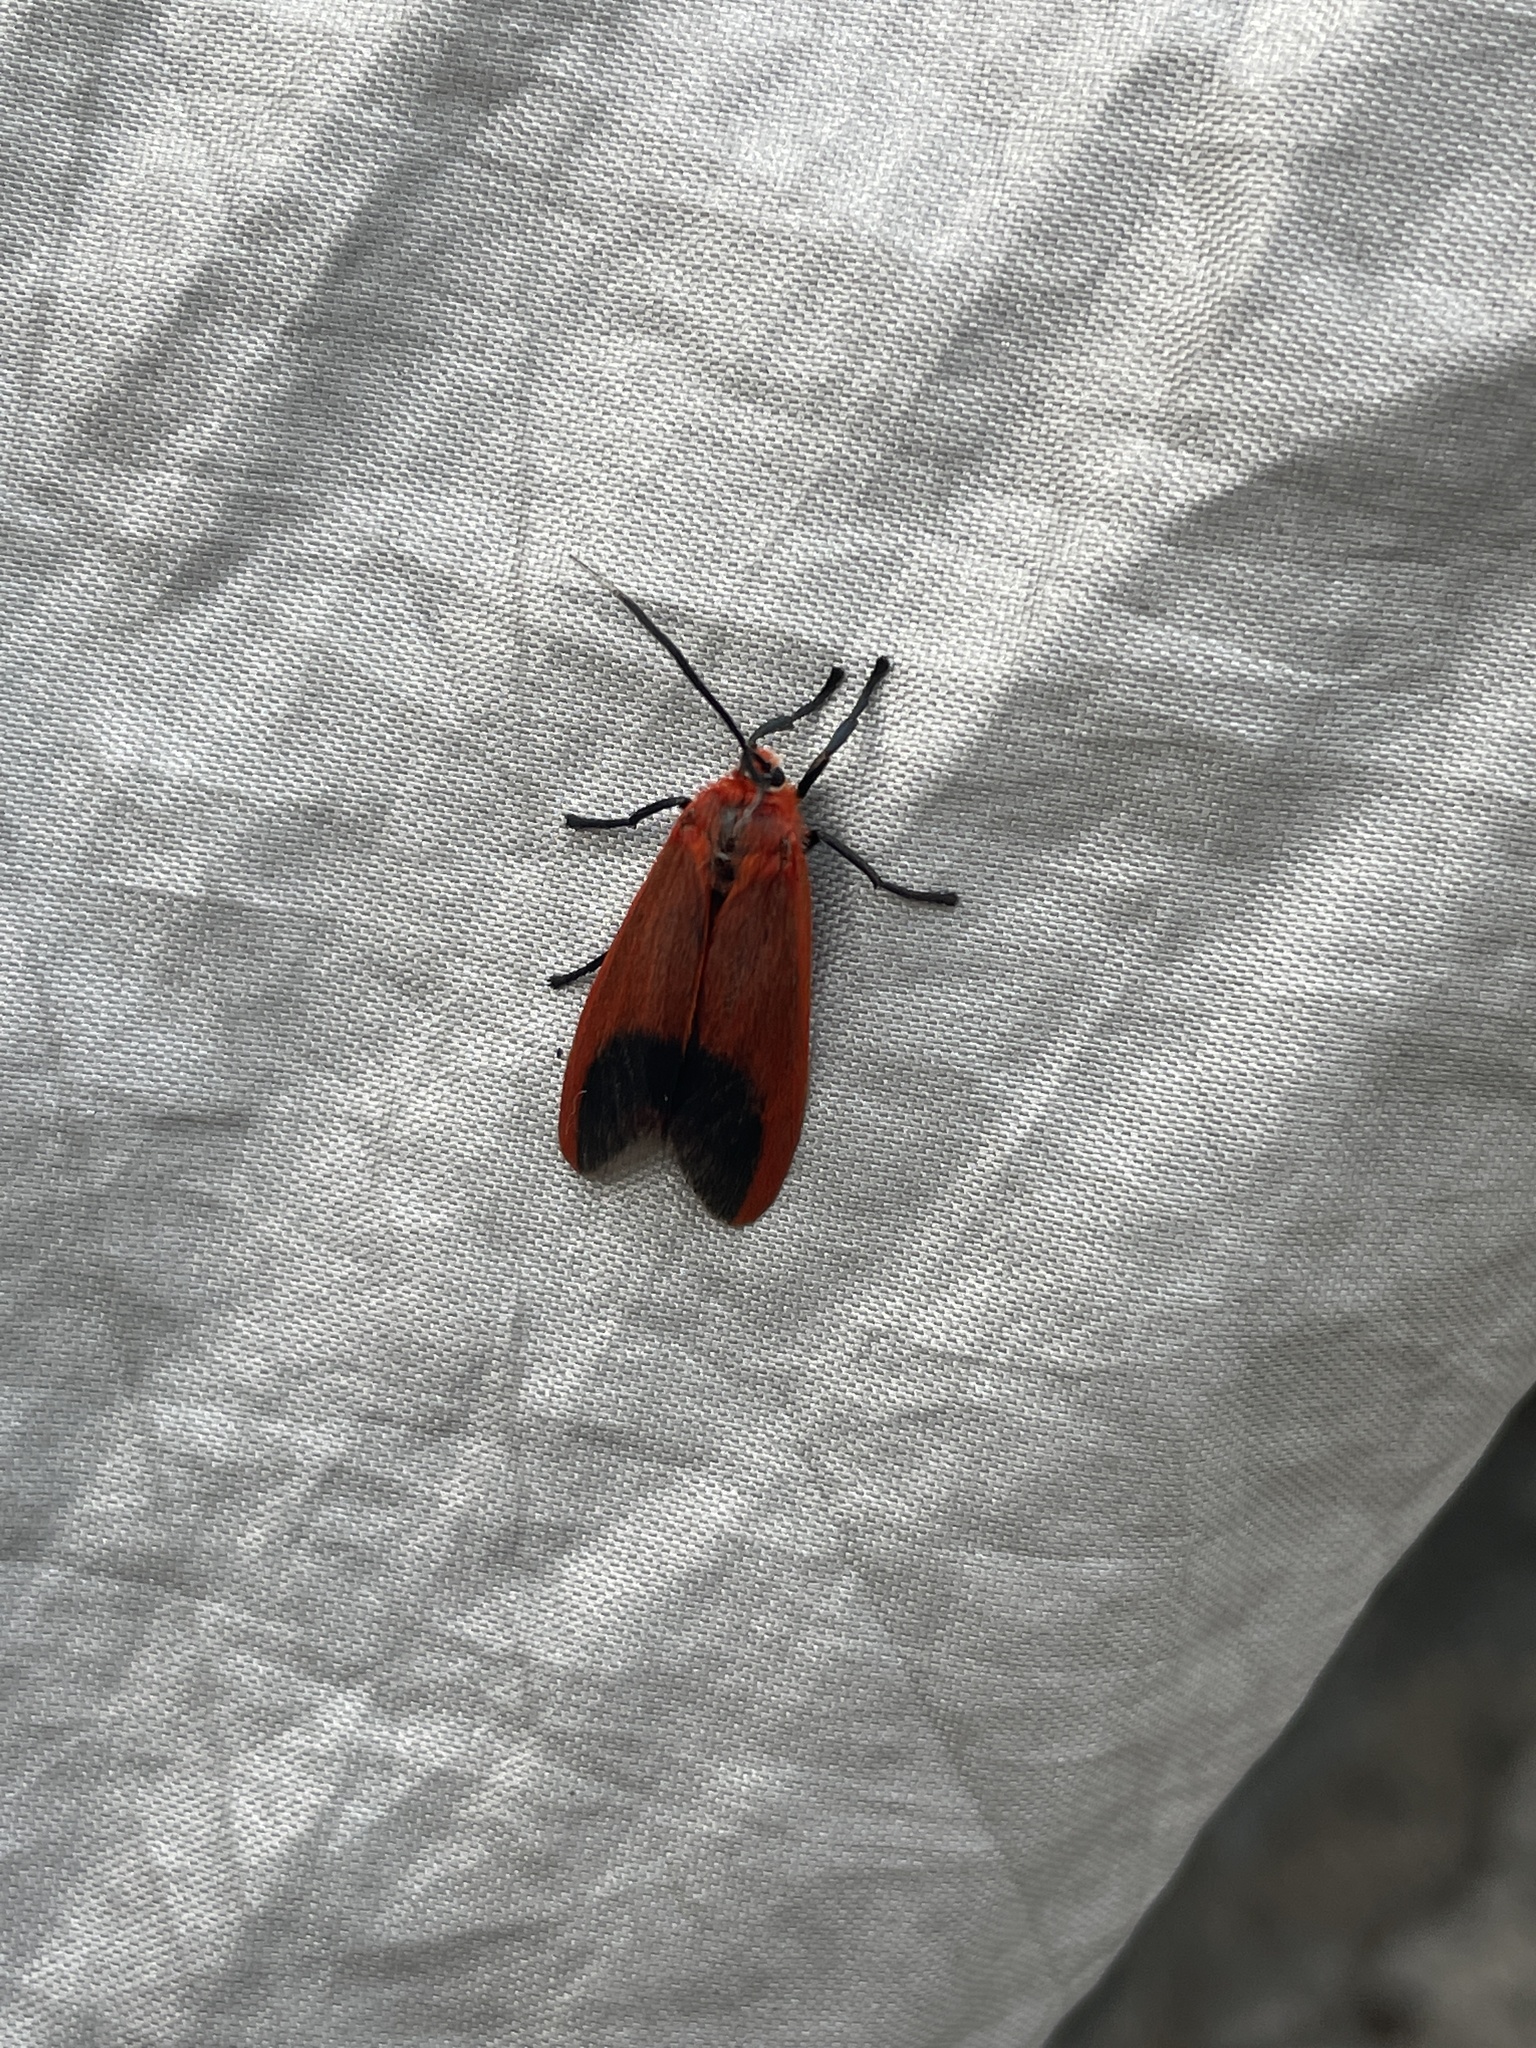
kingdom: Animalia
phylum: Arthropoda
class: Insecta
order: Lepidoptera
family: Phaudidae
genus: Phauda
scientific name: Phauda flammans
